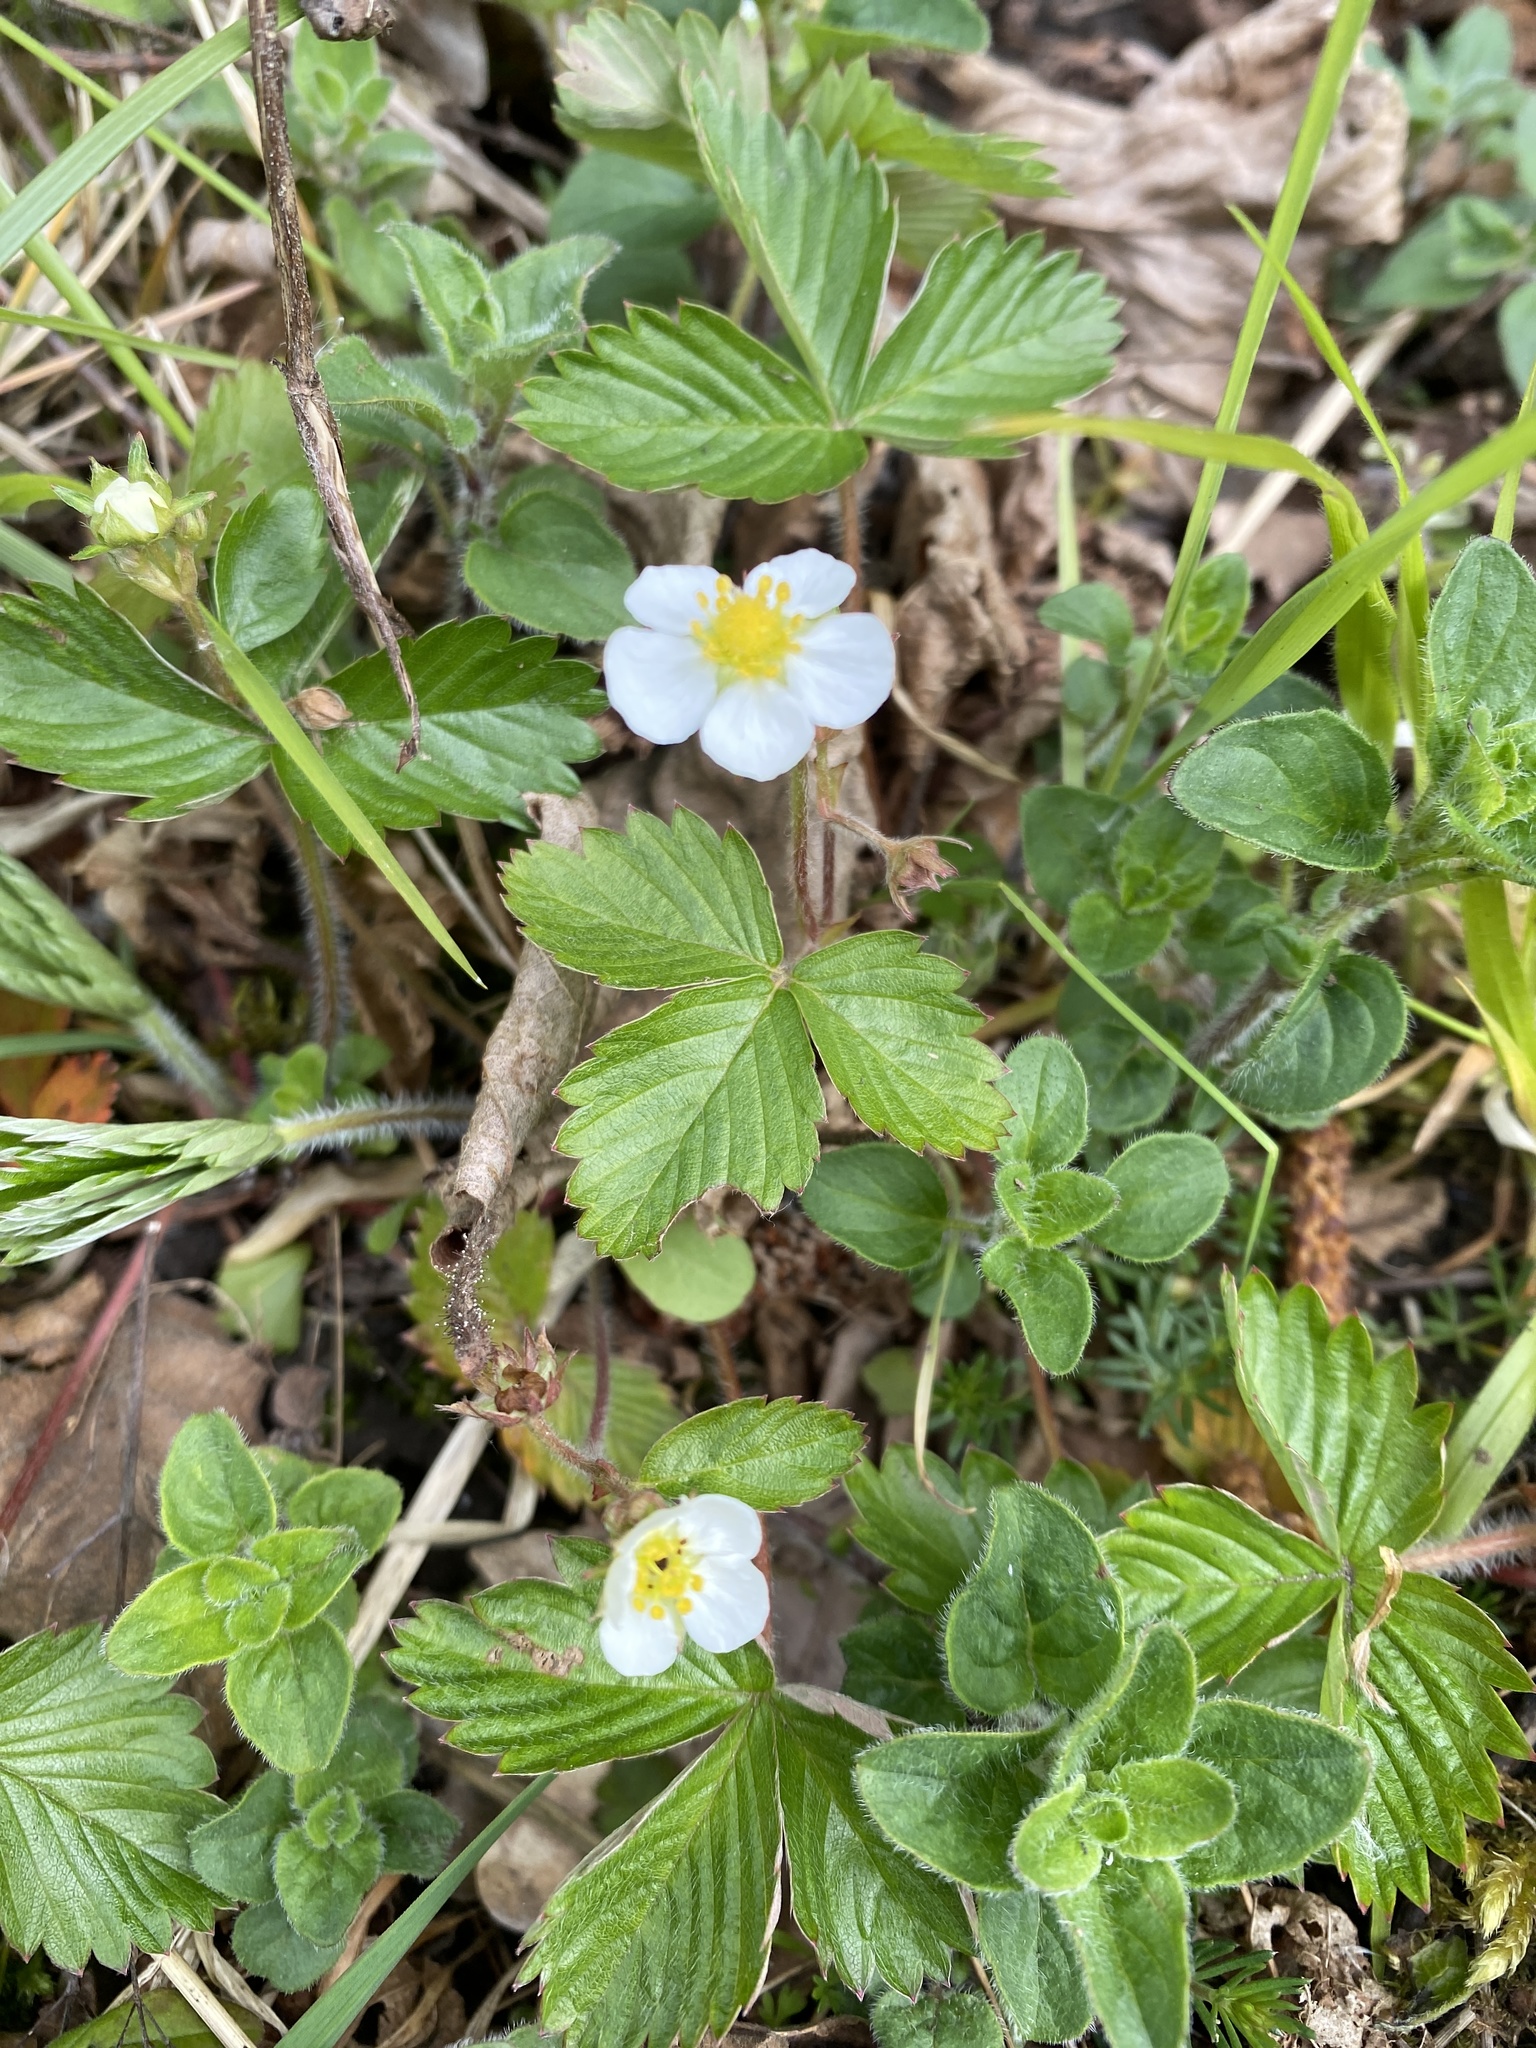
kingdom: Plantae
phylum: Tracheophyta
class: Magnoliopsida
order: Rosales
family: Rosaceae
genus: Fragaria
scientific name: Fragaria vesca
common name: Wild strawberry
